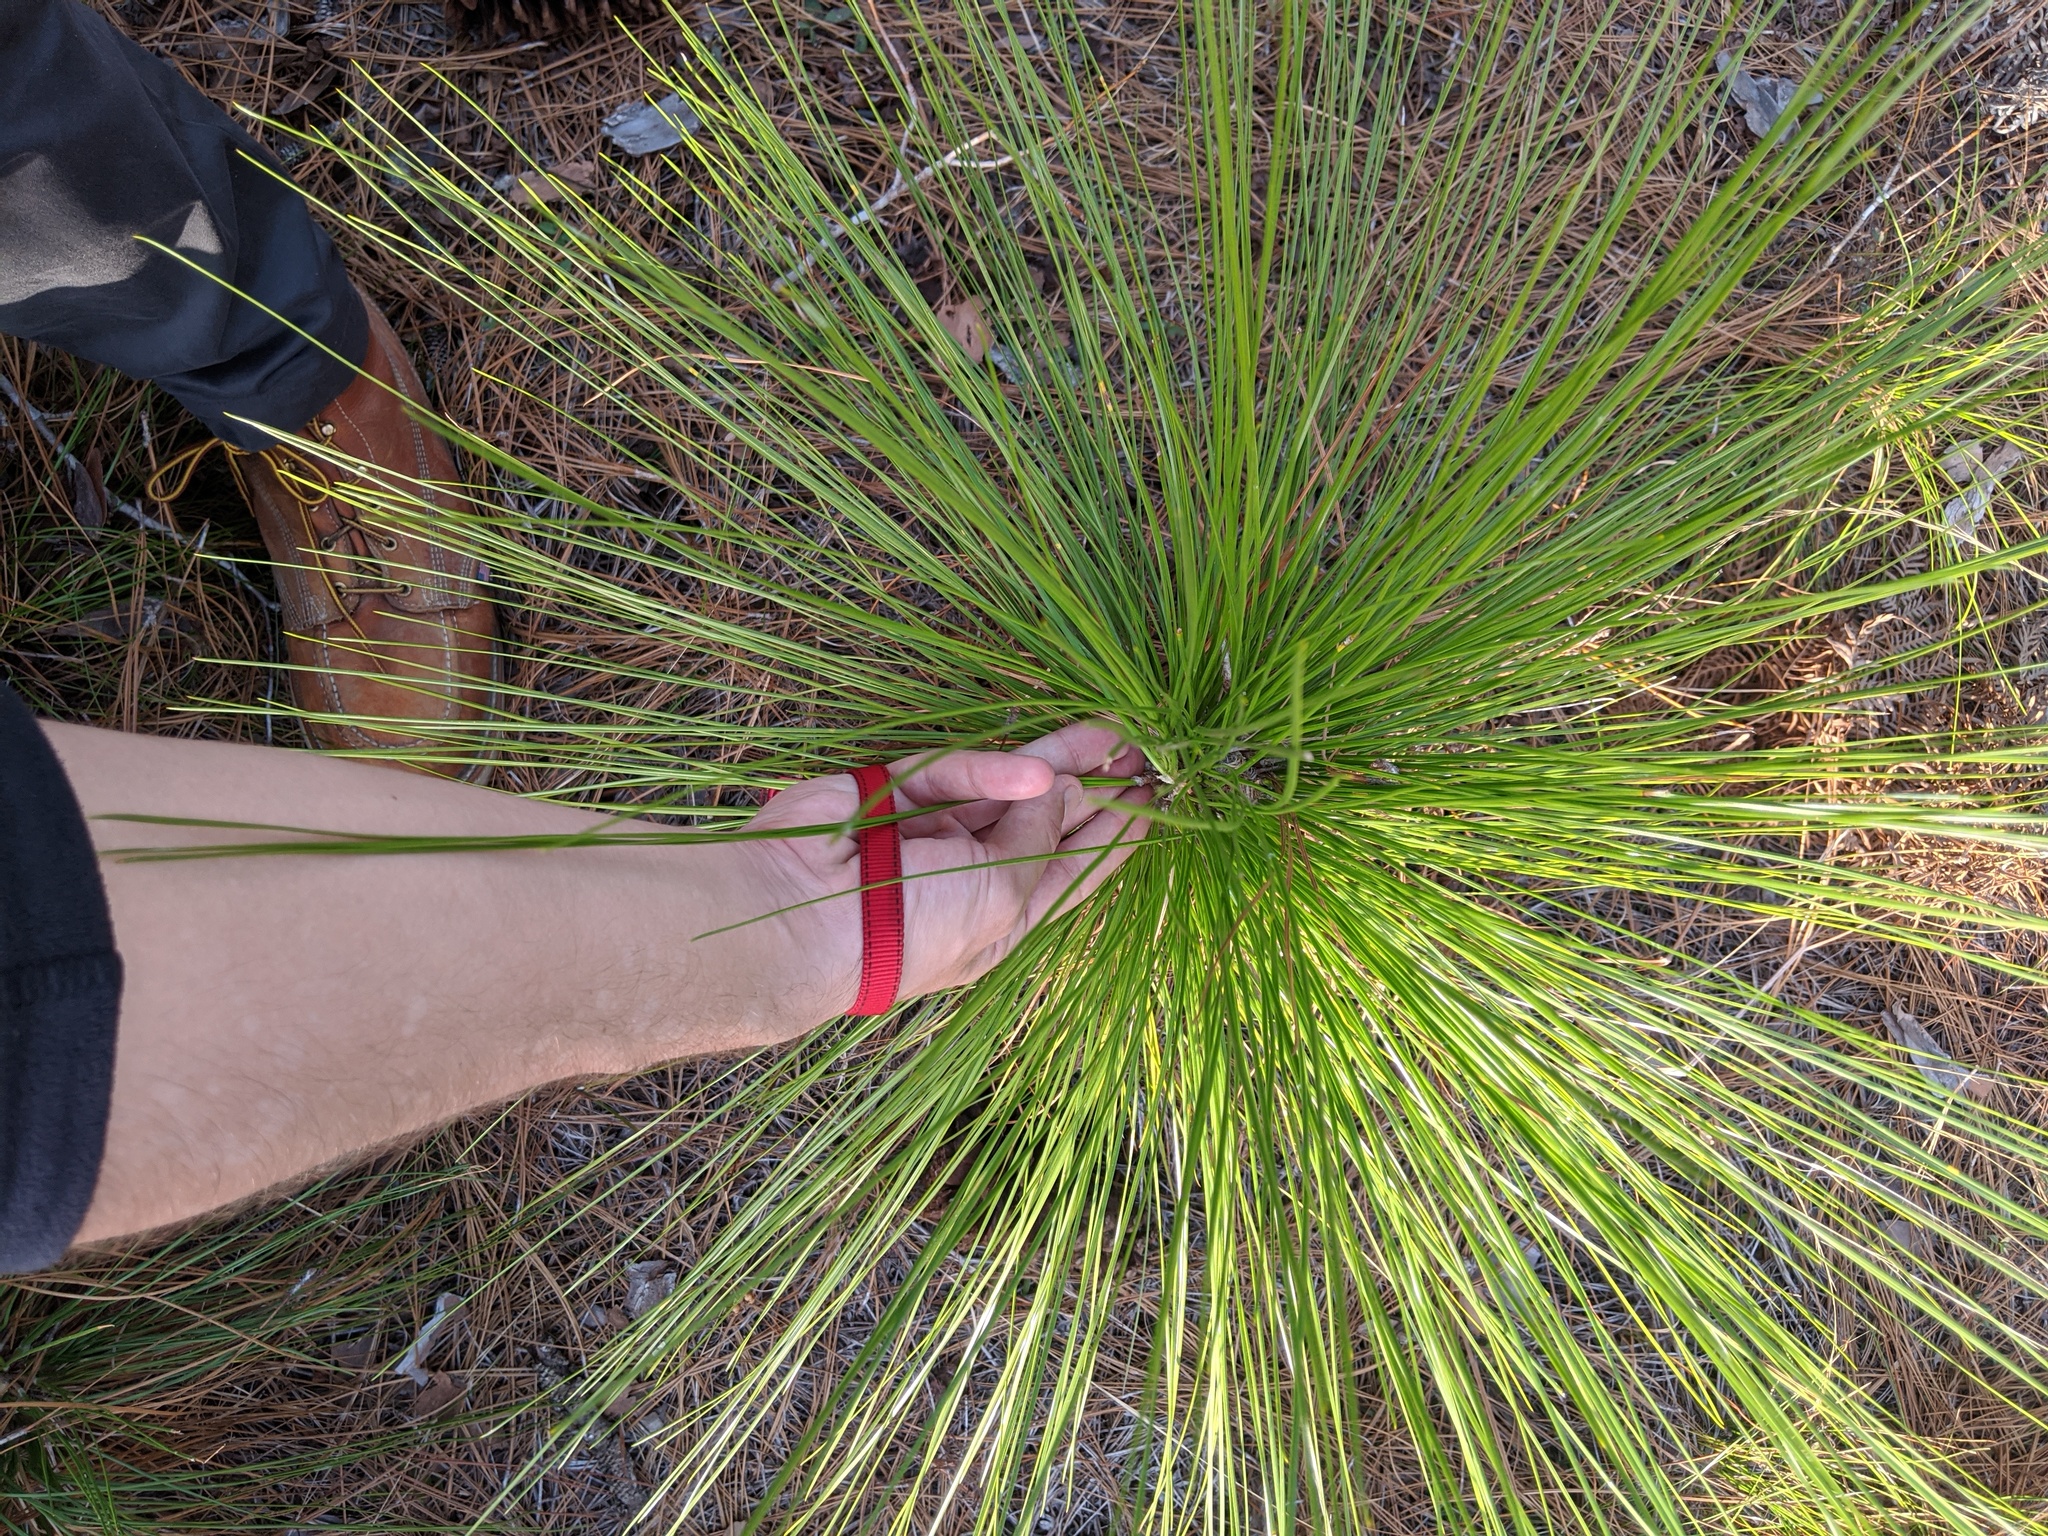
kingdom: Plantae
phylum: Tracheophyta
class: Pinopsida
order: Pinales
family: Pinaceae
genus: Pinus
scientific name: Pinus palustris
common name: Longleaf pine
